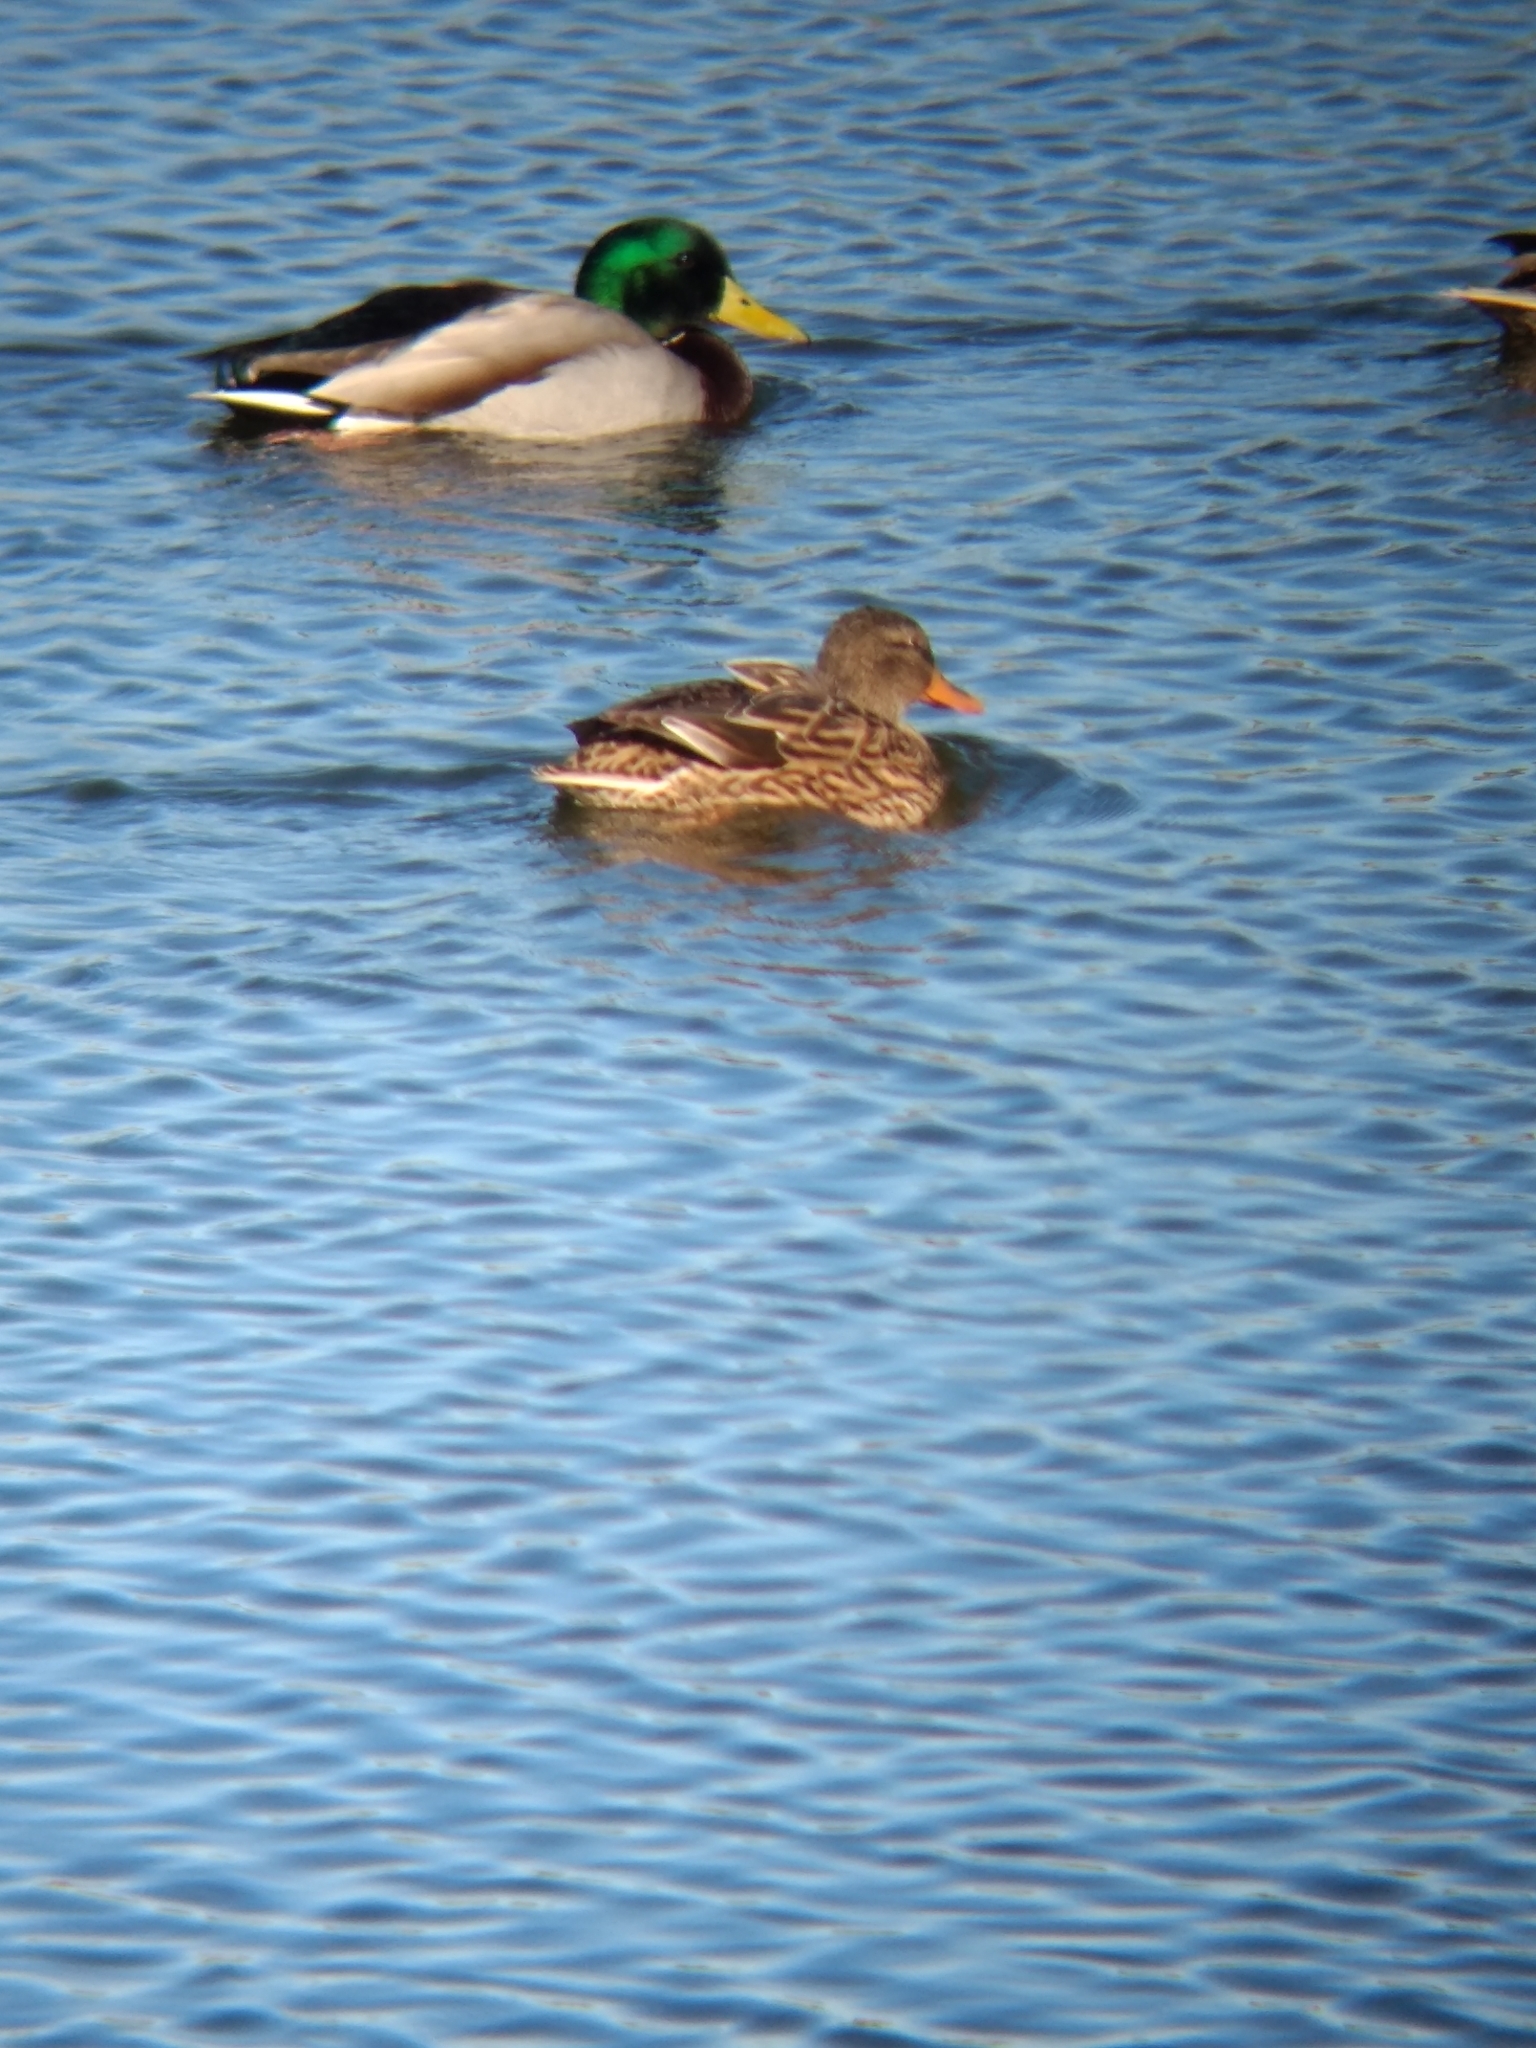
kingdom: Animalia
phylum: Chordata
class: Aves
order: Anseriformes
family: Anatidae
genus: Anas
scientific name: Anas platyrhynchos
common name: Mallard
